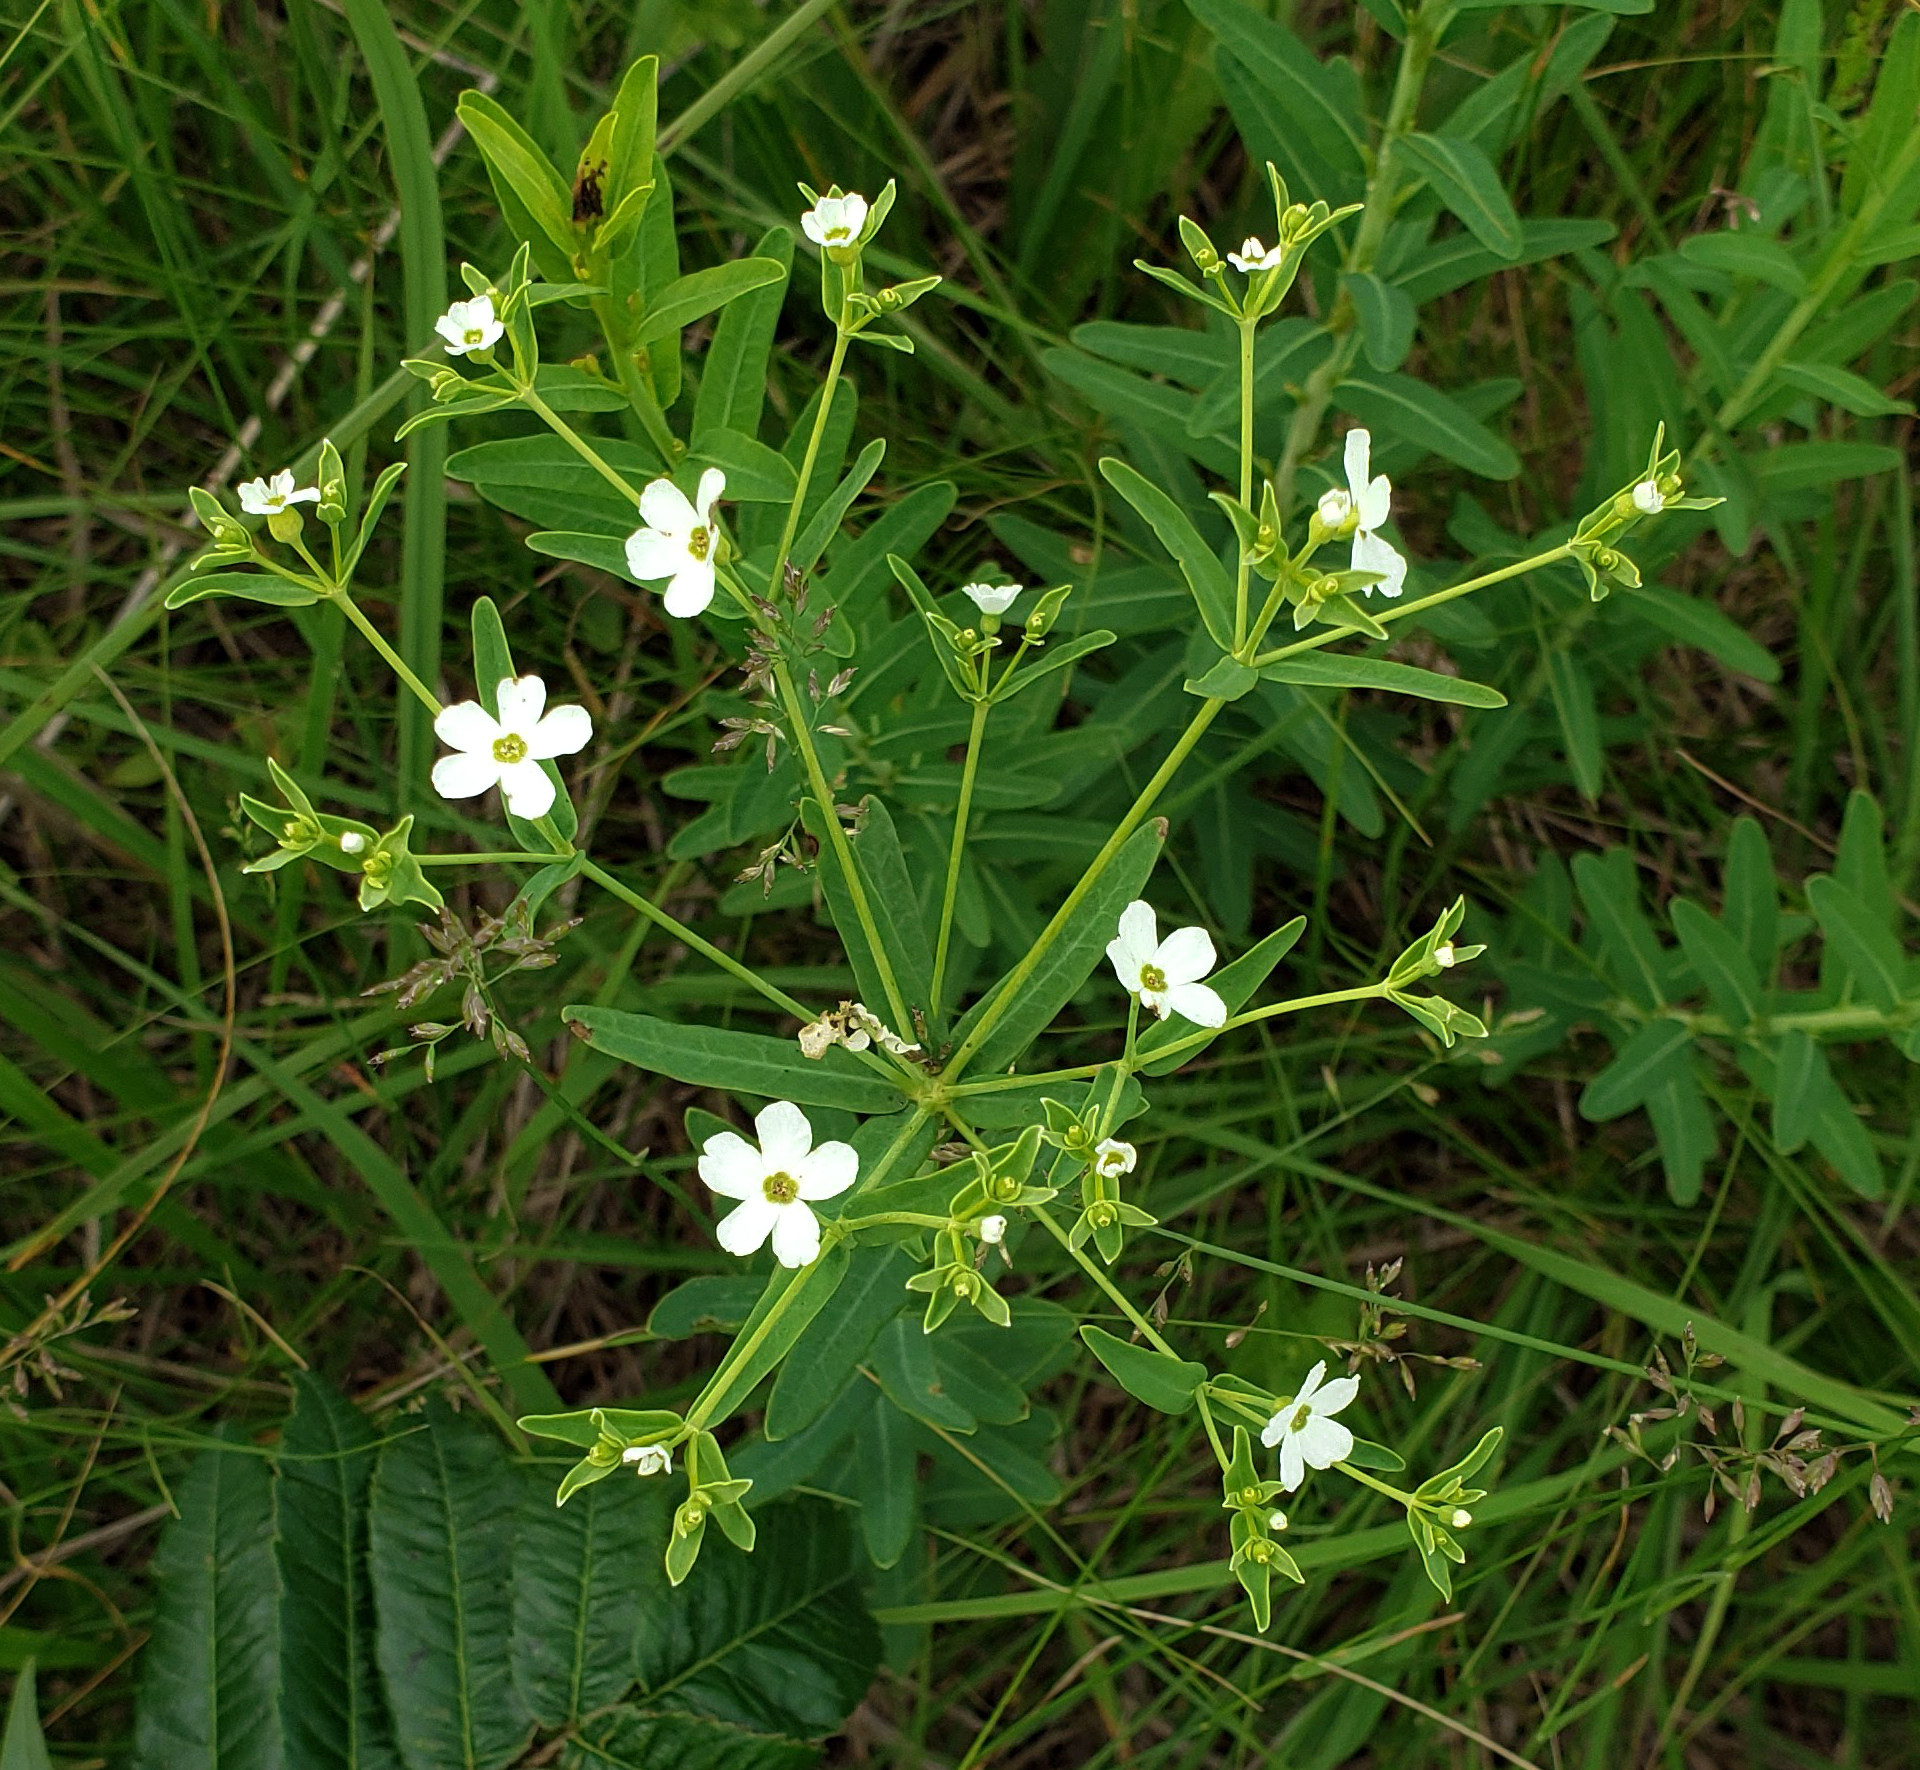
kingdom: Plantae
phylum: Tracheophyta
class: Magnoliopsida
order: Malpighiales
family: Euphorbiaceae
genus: Euphorbia
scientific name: Euphorbia corollata
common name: Flowering spurge
